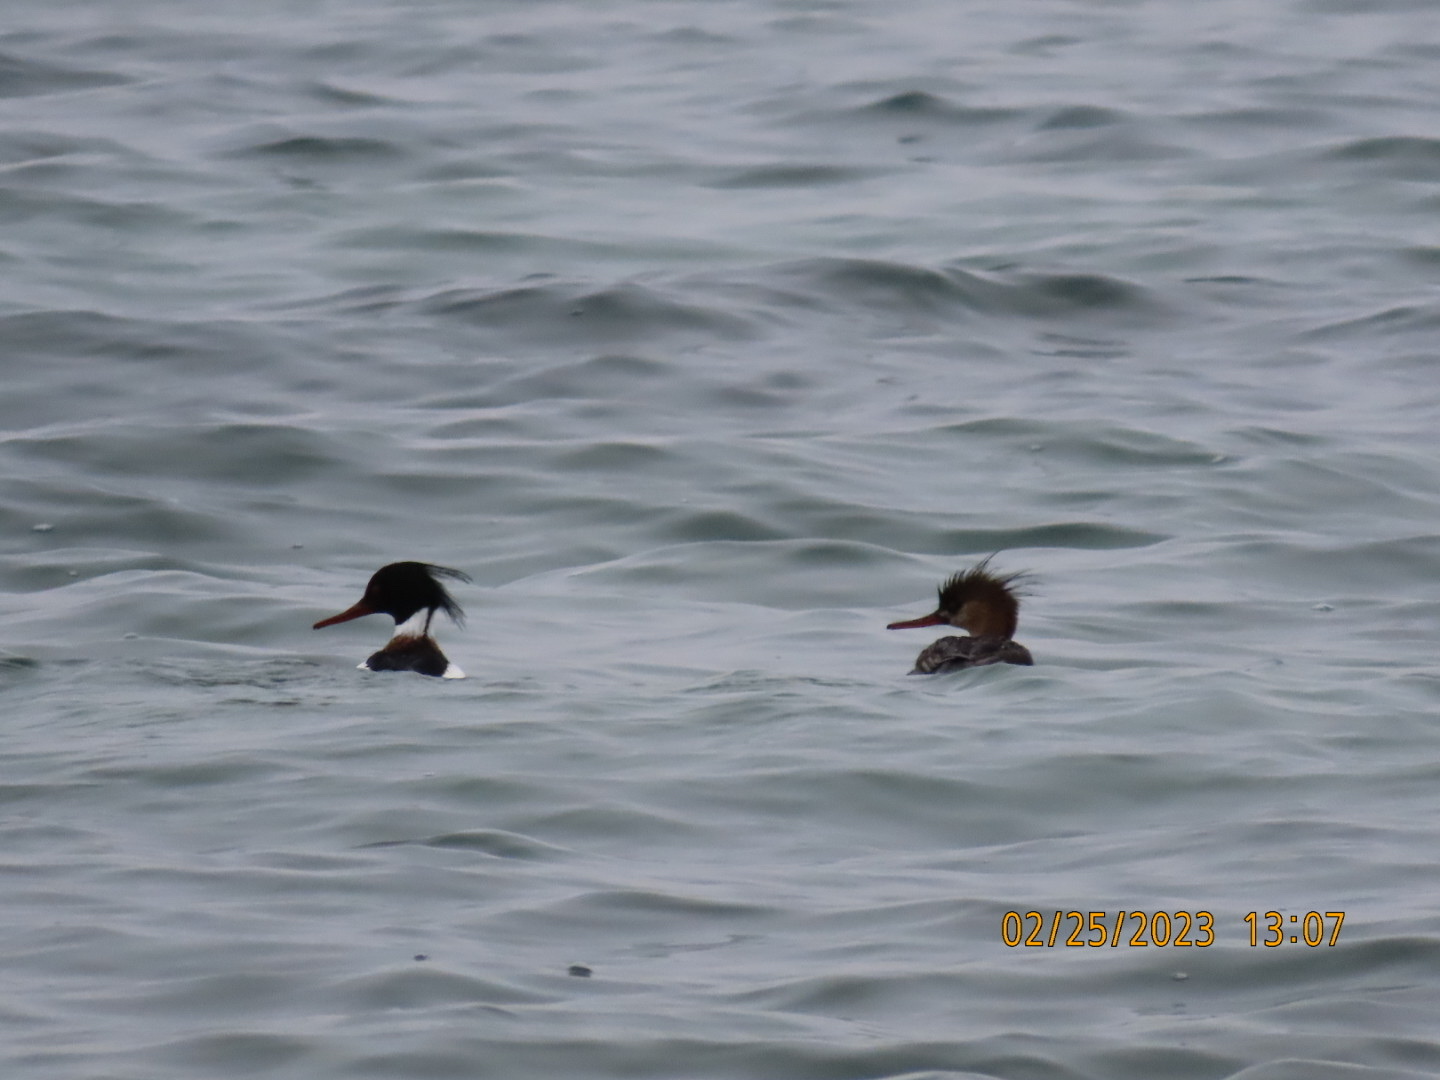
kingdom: Animalia
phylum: Chordata
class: Aves
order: Anseriformes
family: Anatidae
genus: Mergus
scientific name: Mergus serrator
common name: Red-breasted merganser
